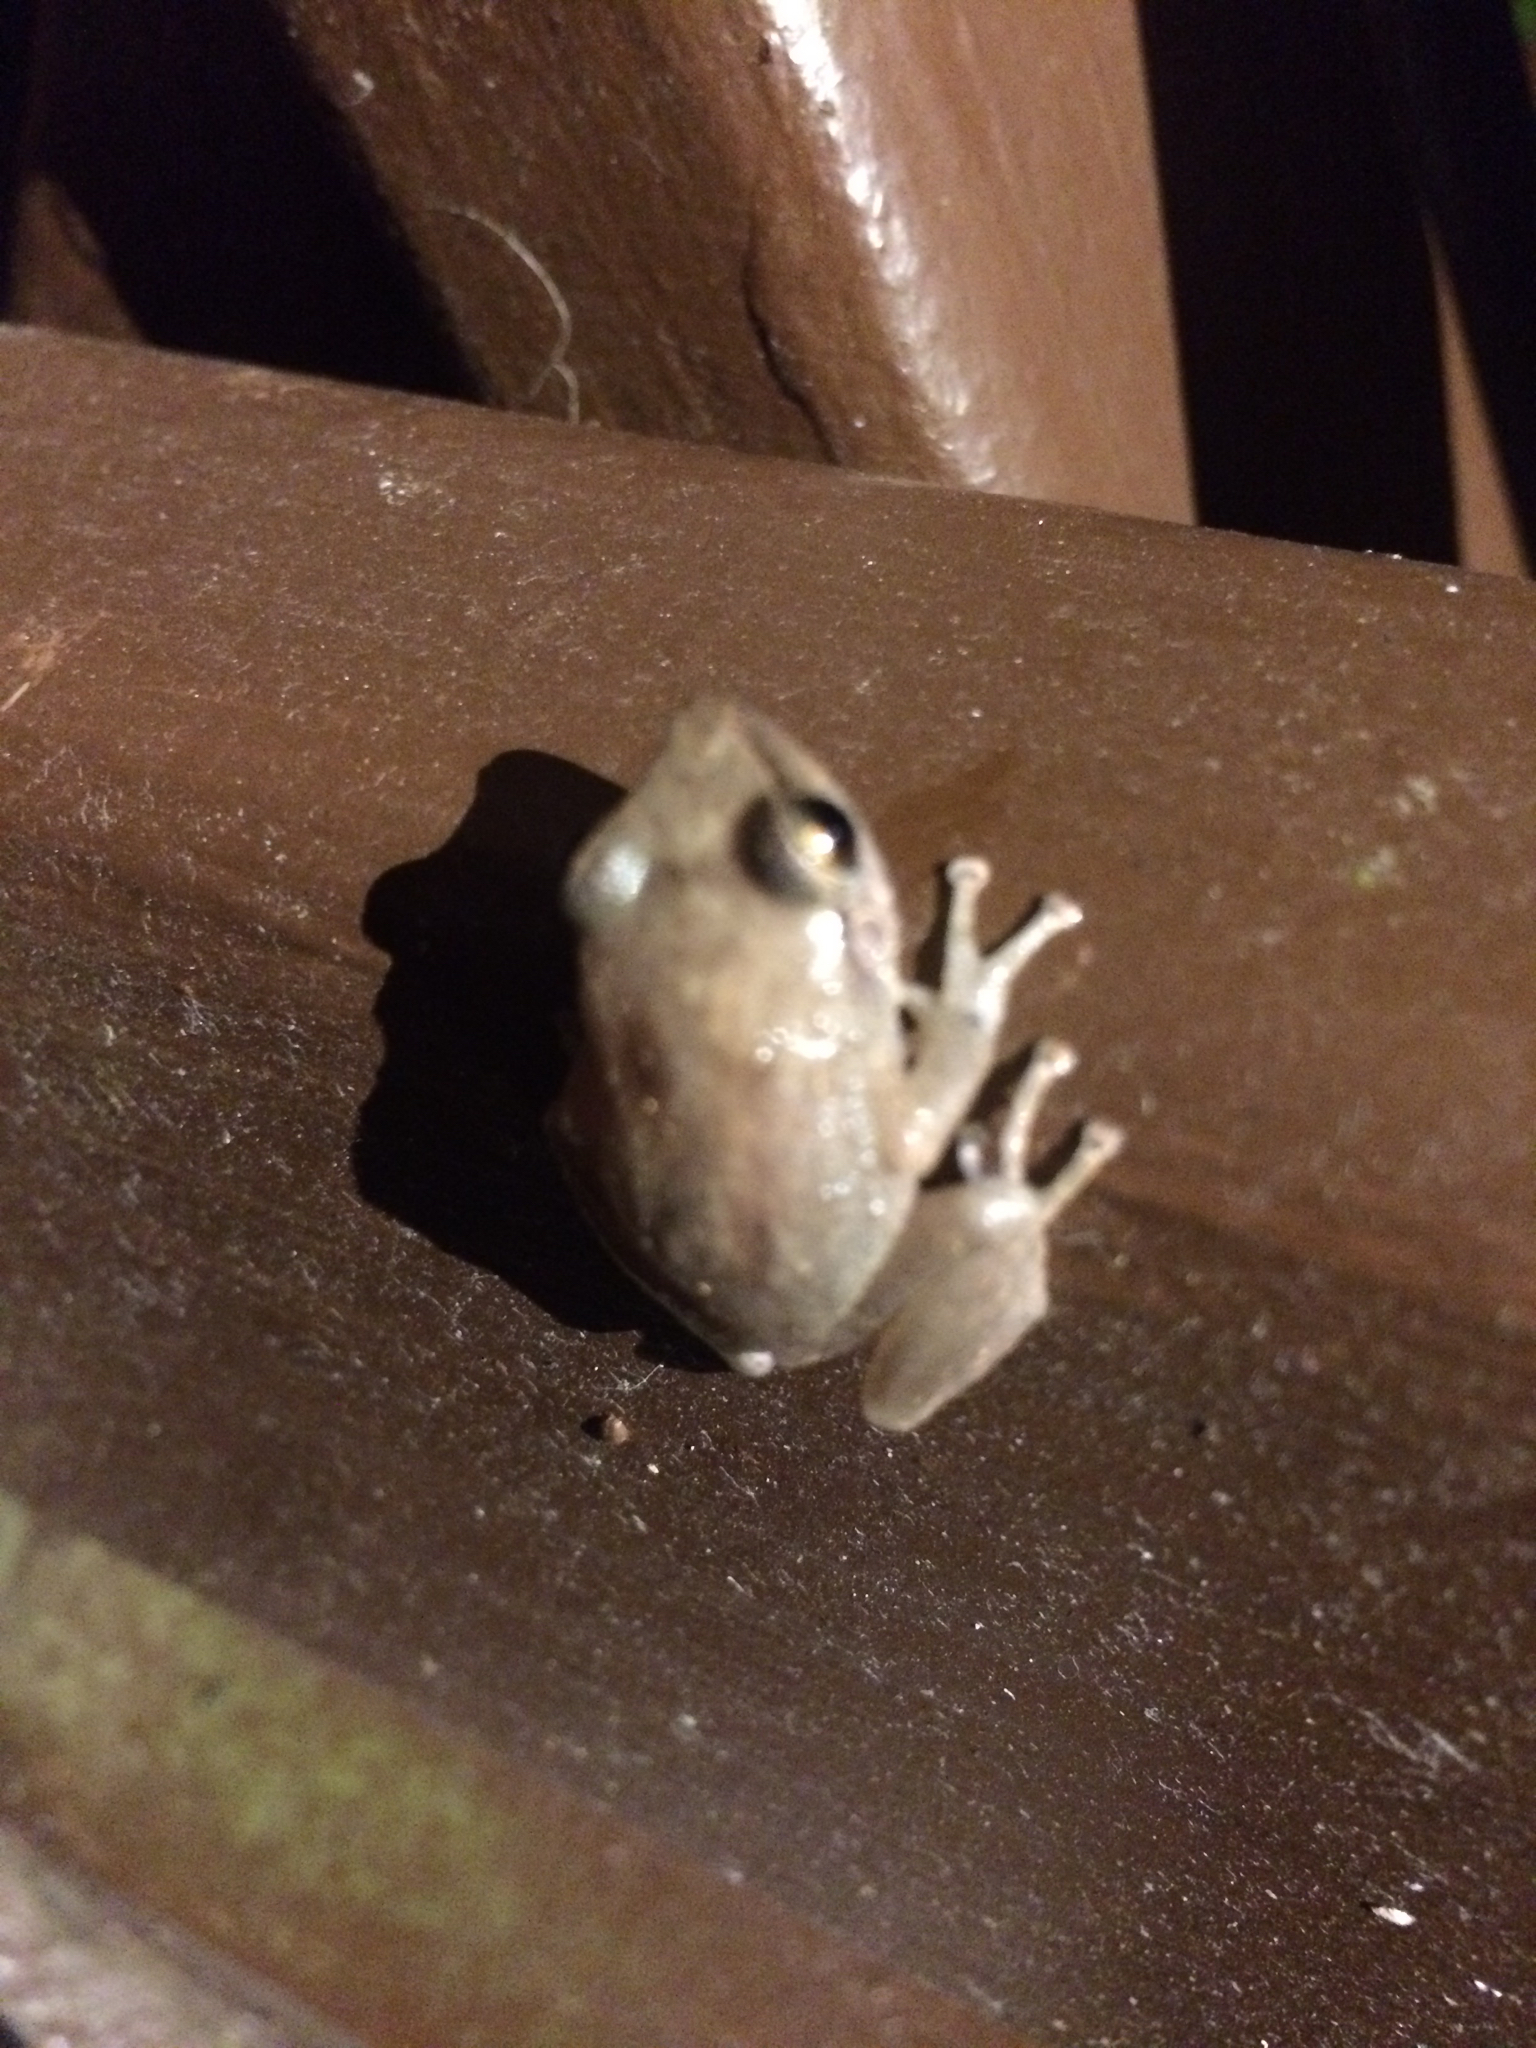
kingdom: Animalia
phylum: Chordata
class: Amphibia
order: Anura
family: Eleutherodactylidae
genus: Eleutherodactylus
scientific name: Eleutherodactylus coqui
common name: Coqui frog
